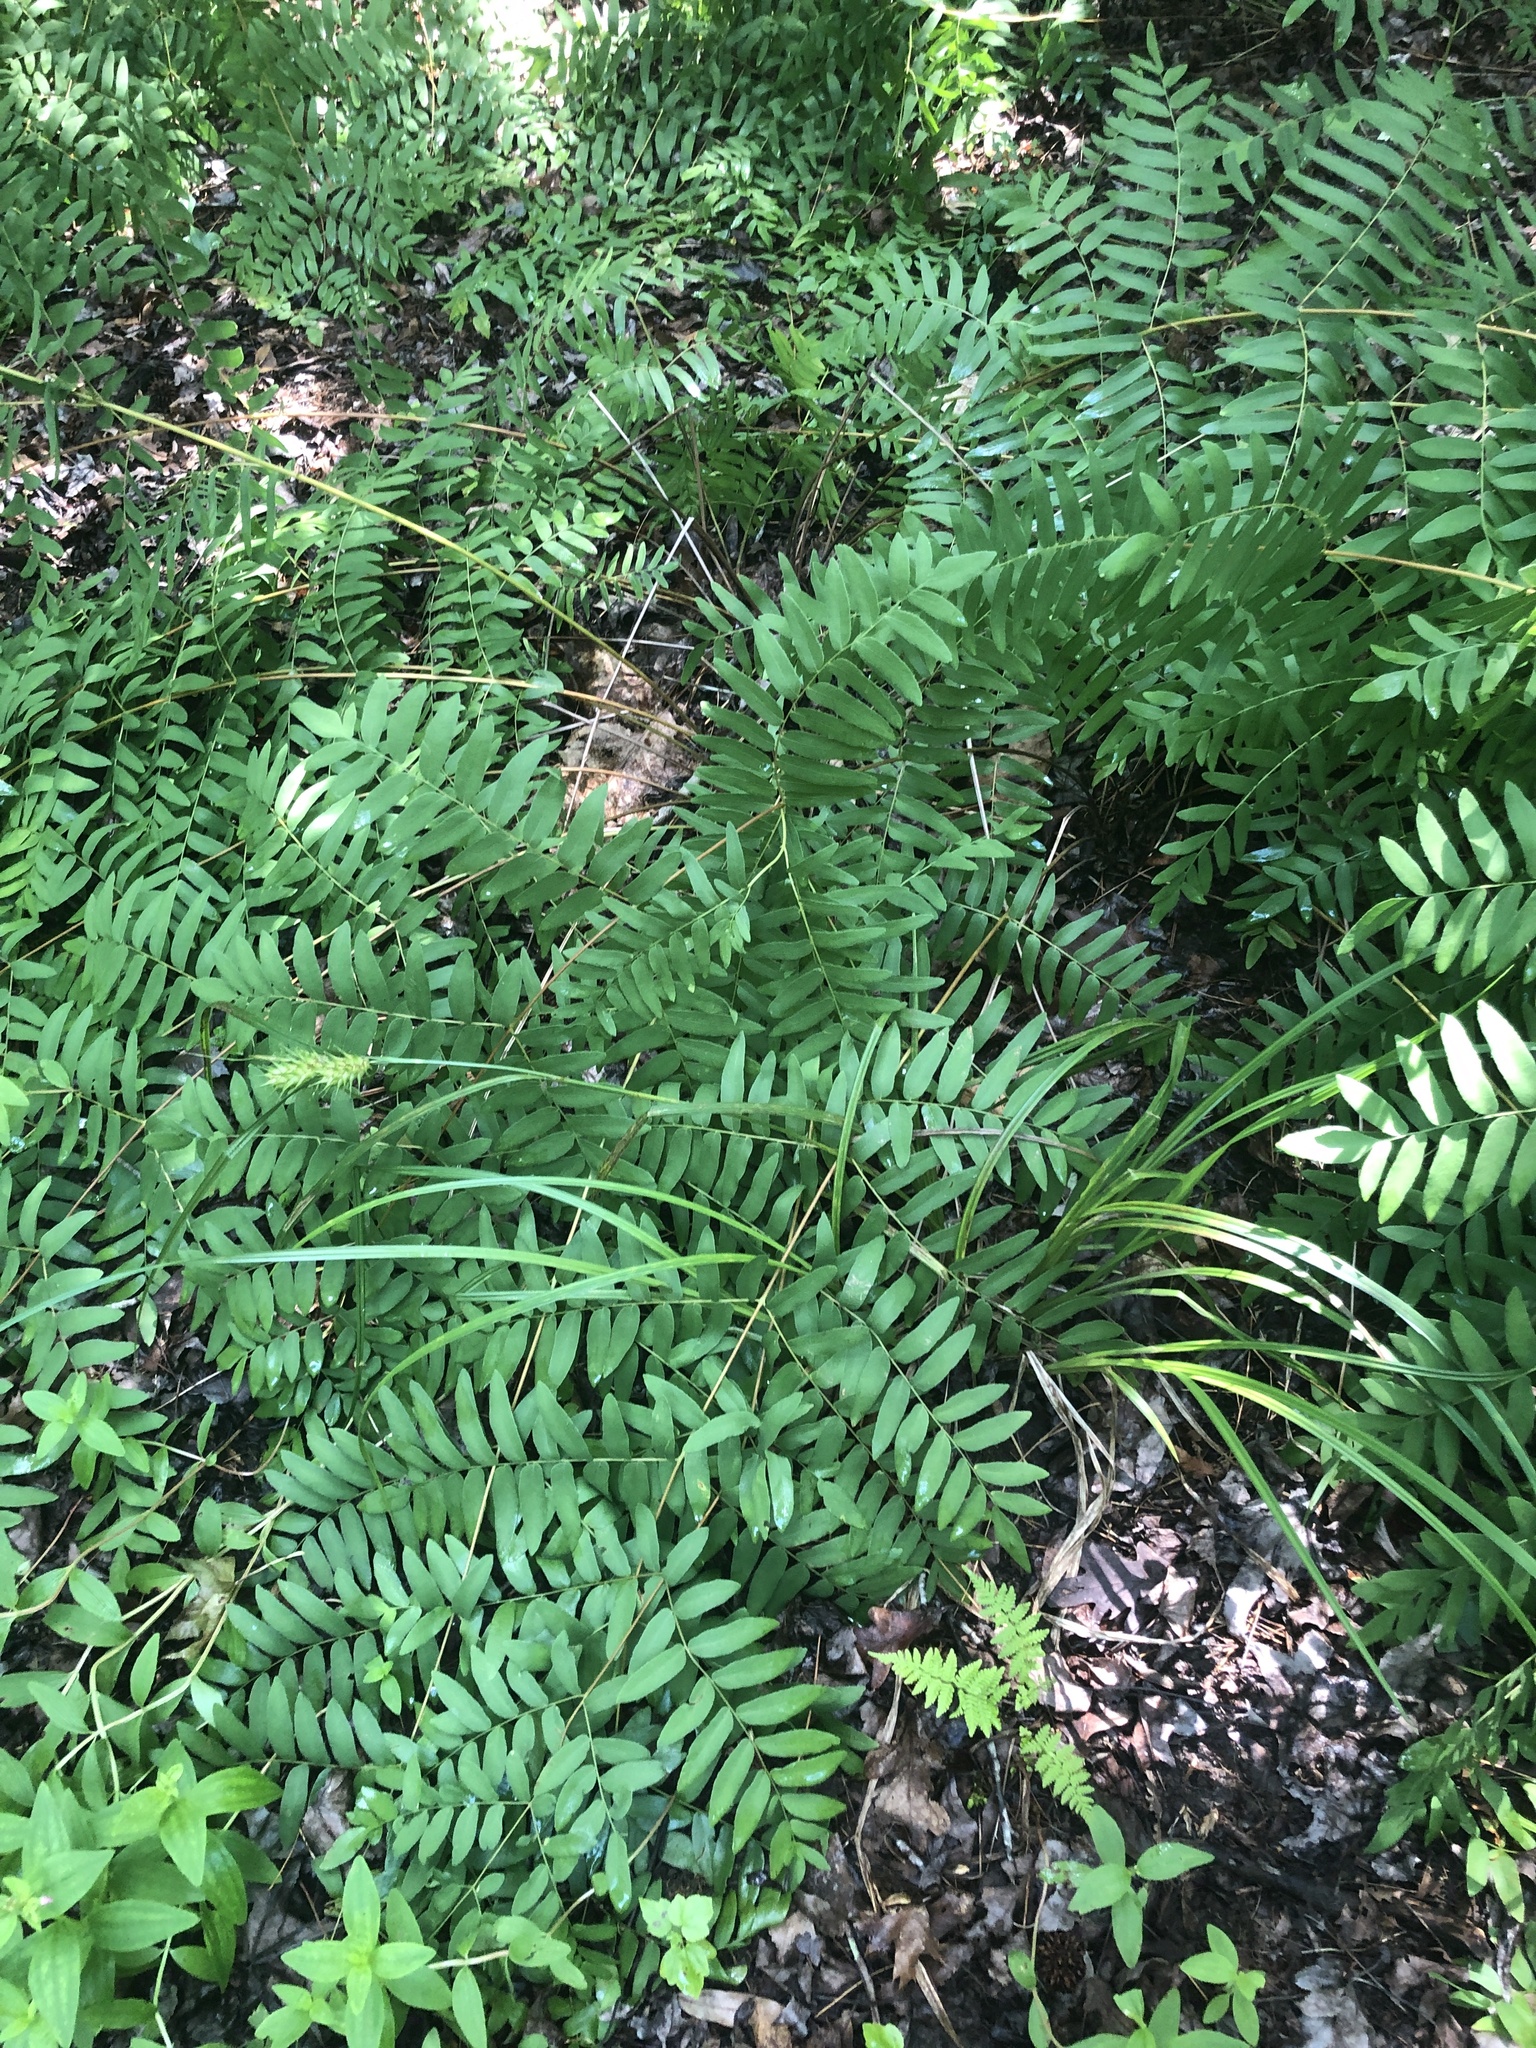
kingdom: Plantae
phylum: Tracheophyta
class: Polypodiopsida
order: Osmundales
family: Osmundaceae
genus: Osmunda
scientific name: Osmunda spectabilis
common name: American royal fern
